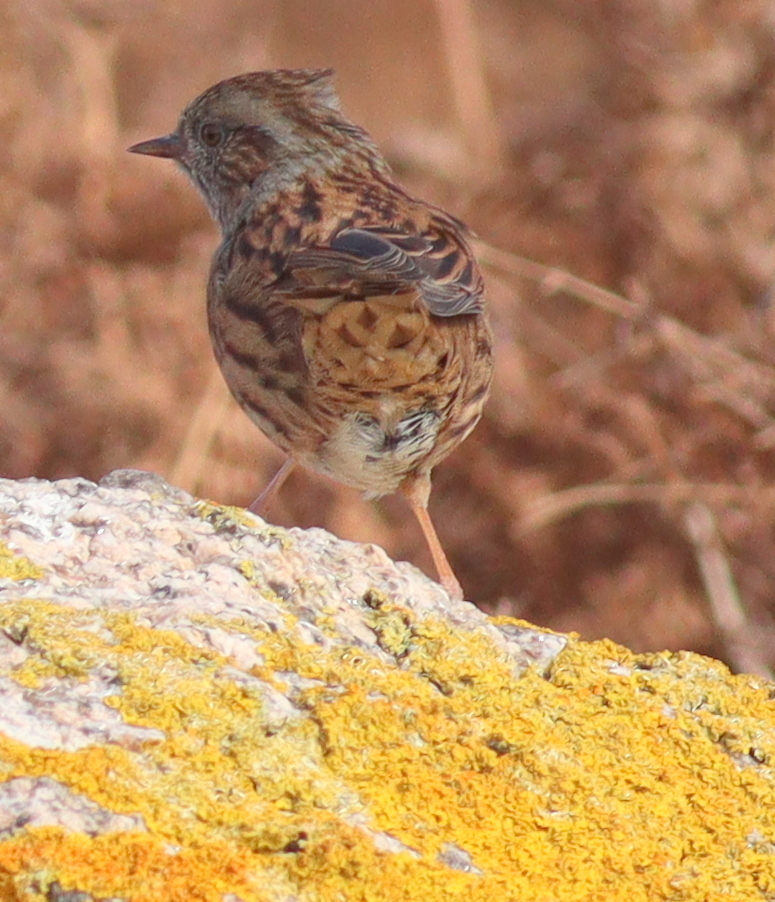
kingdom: Animalia
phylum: Chordata
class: Aves
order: Passeriformes
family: Prunellidae
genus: Prunella
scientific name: Prunella modularis
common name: Dunnock
